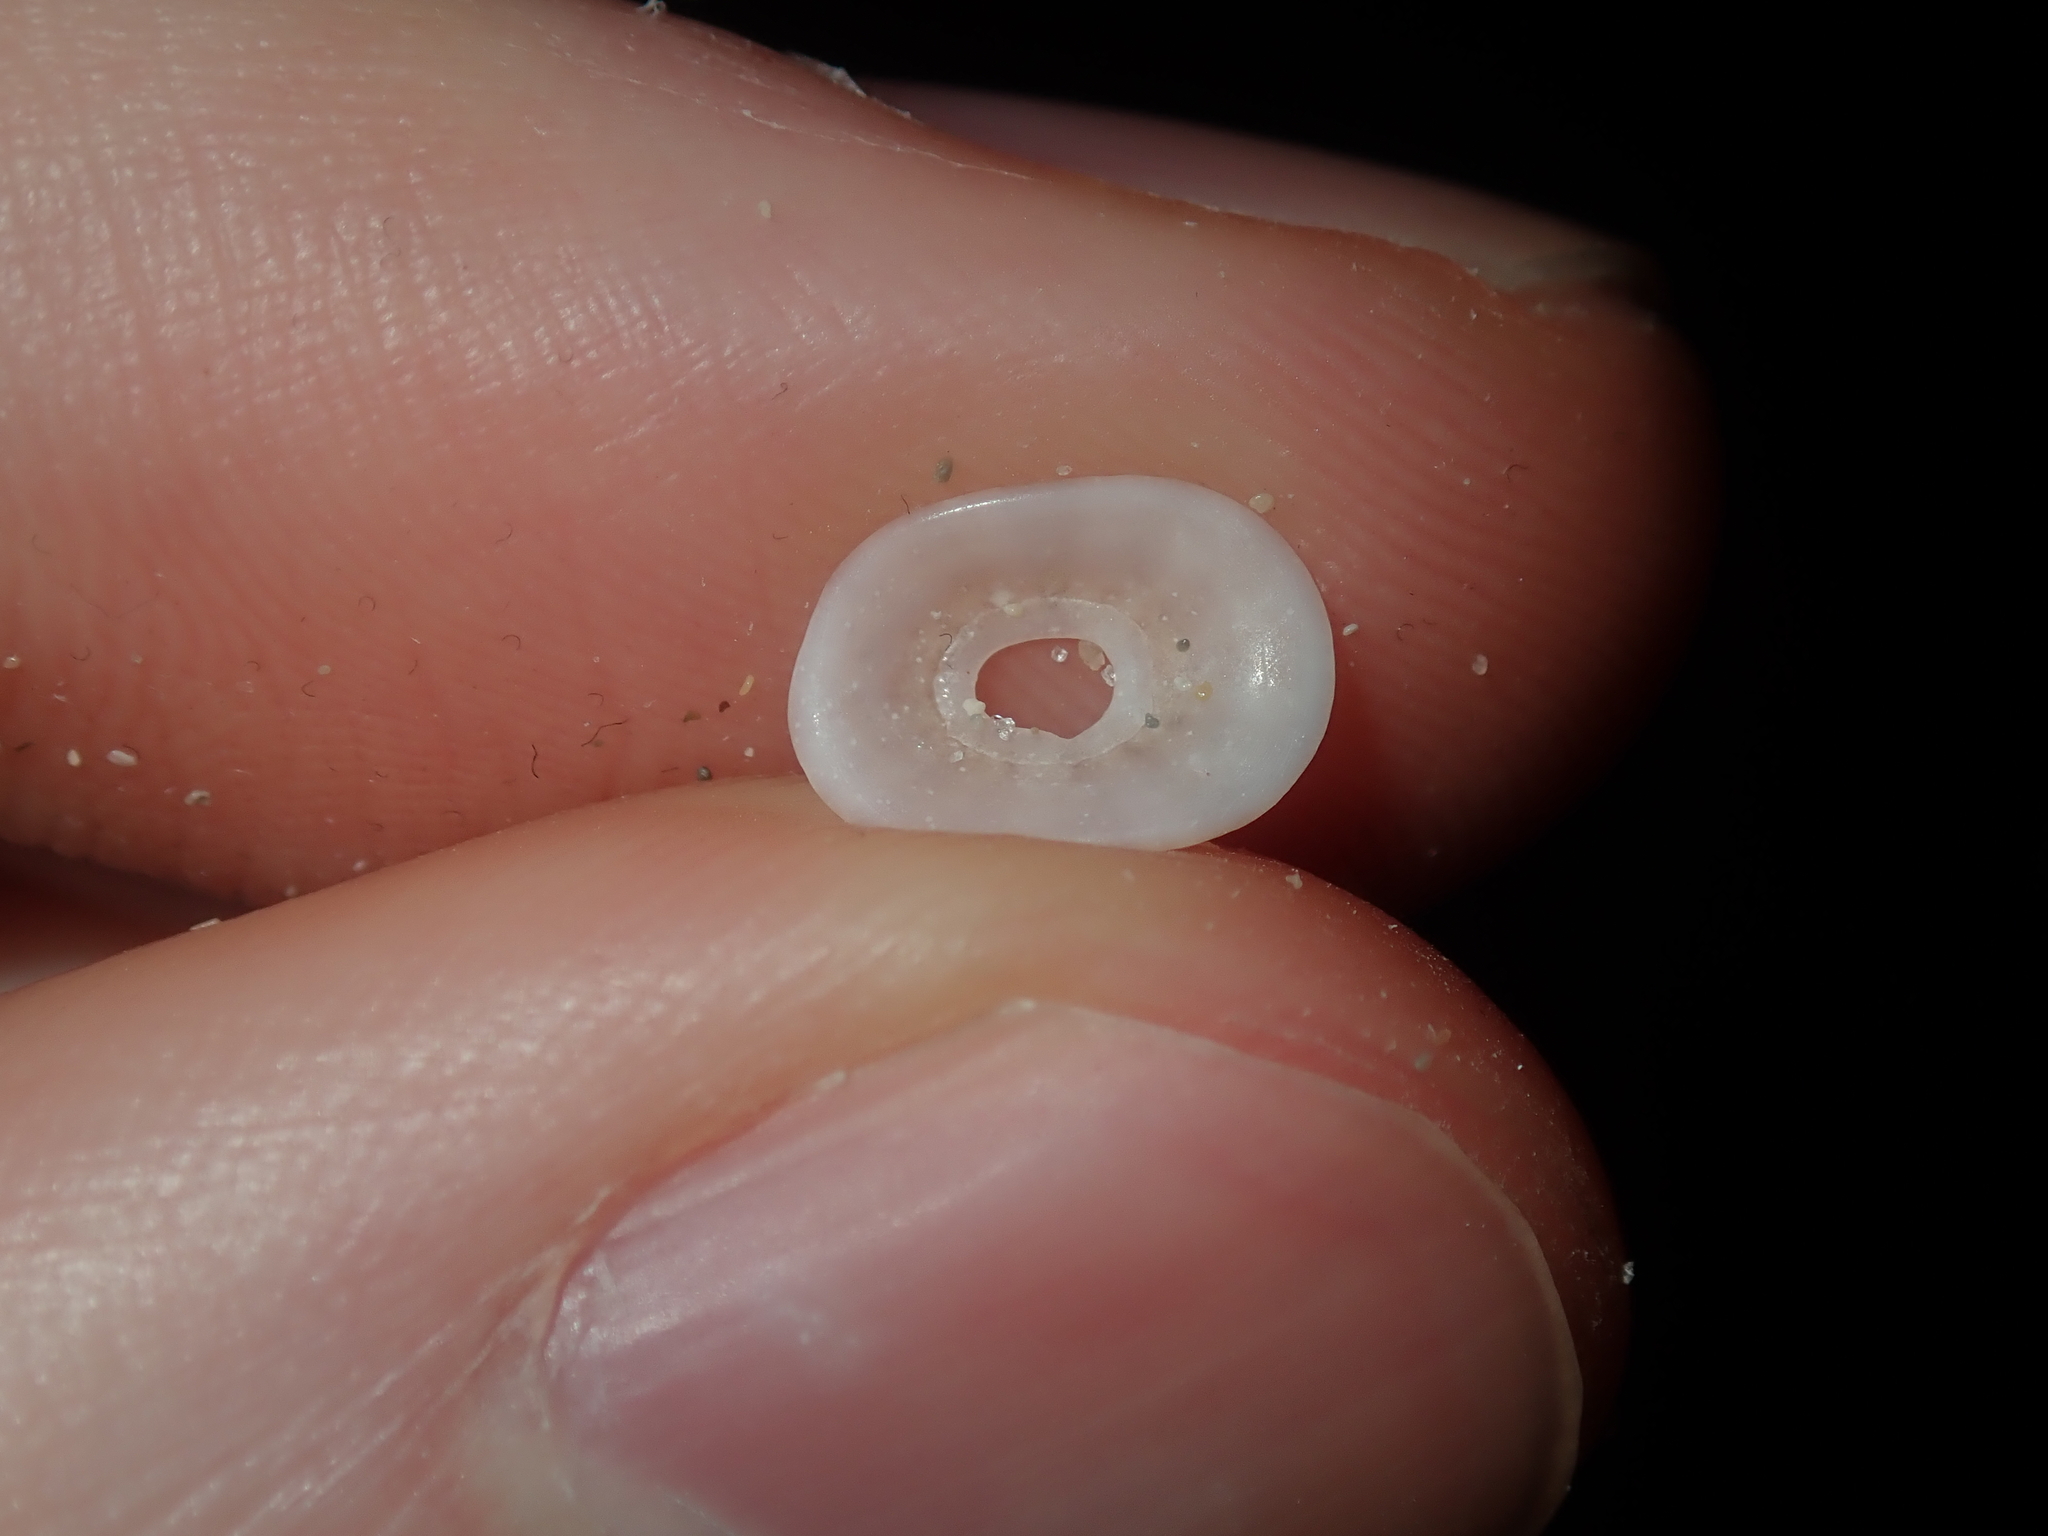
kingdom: Animalia
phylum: Mollusca
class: Gastropoda
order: Lepetellida
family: Fissurellidae
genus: Amblychilepas
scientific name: Amblychilepas nigrita
